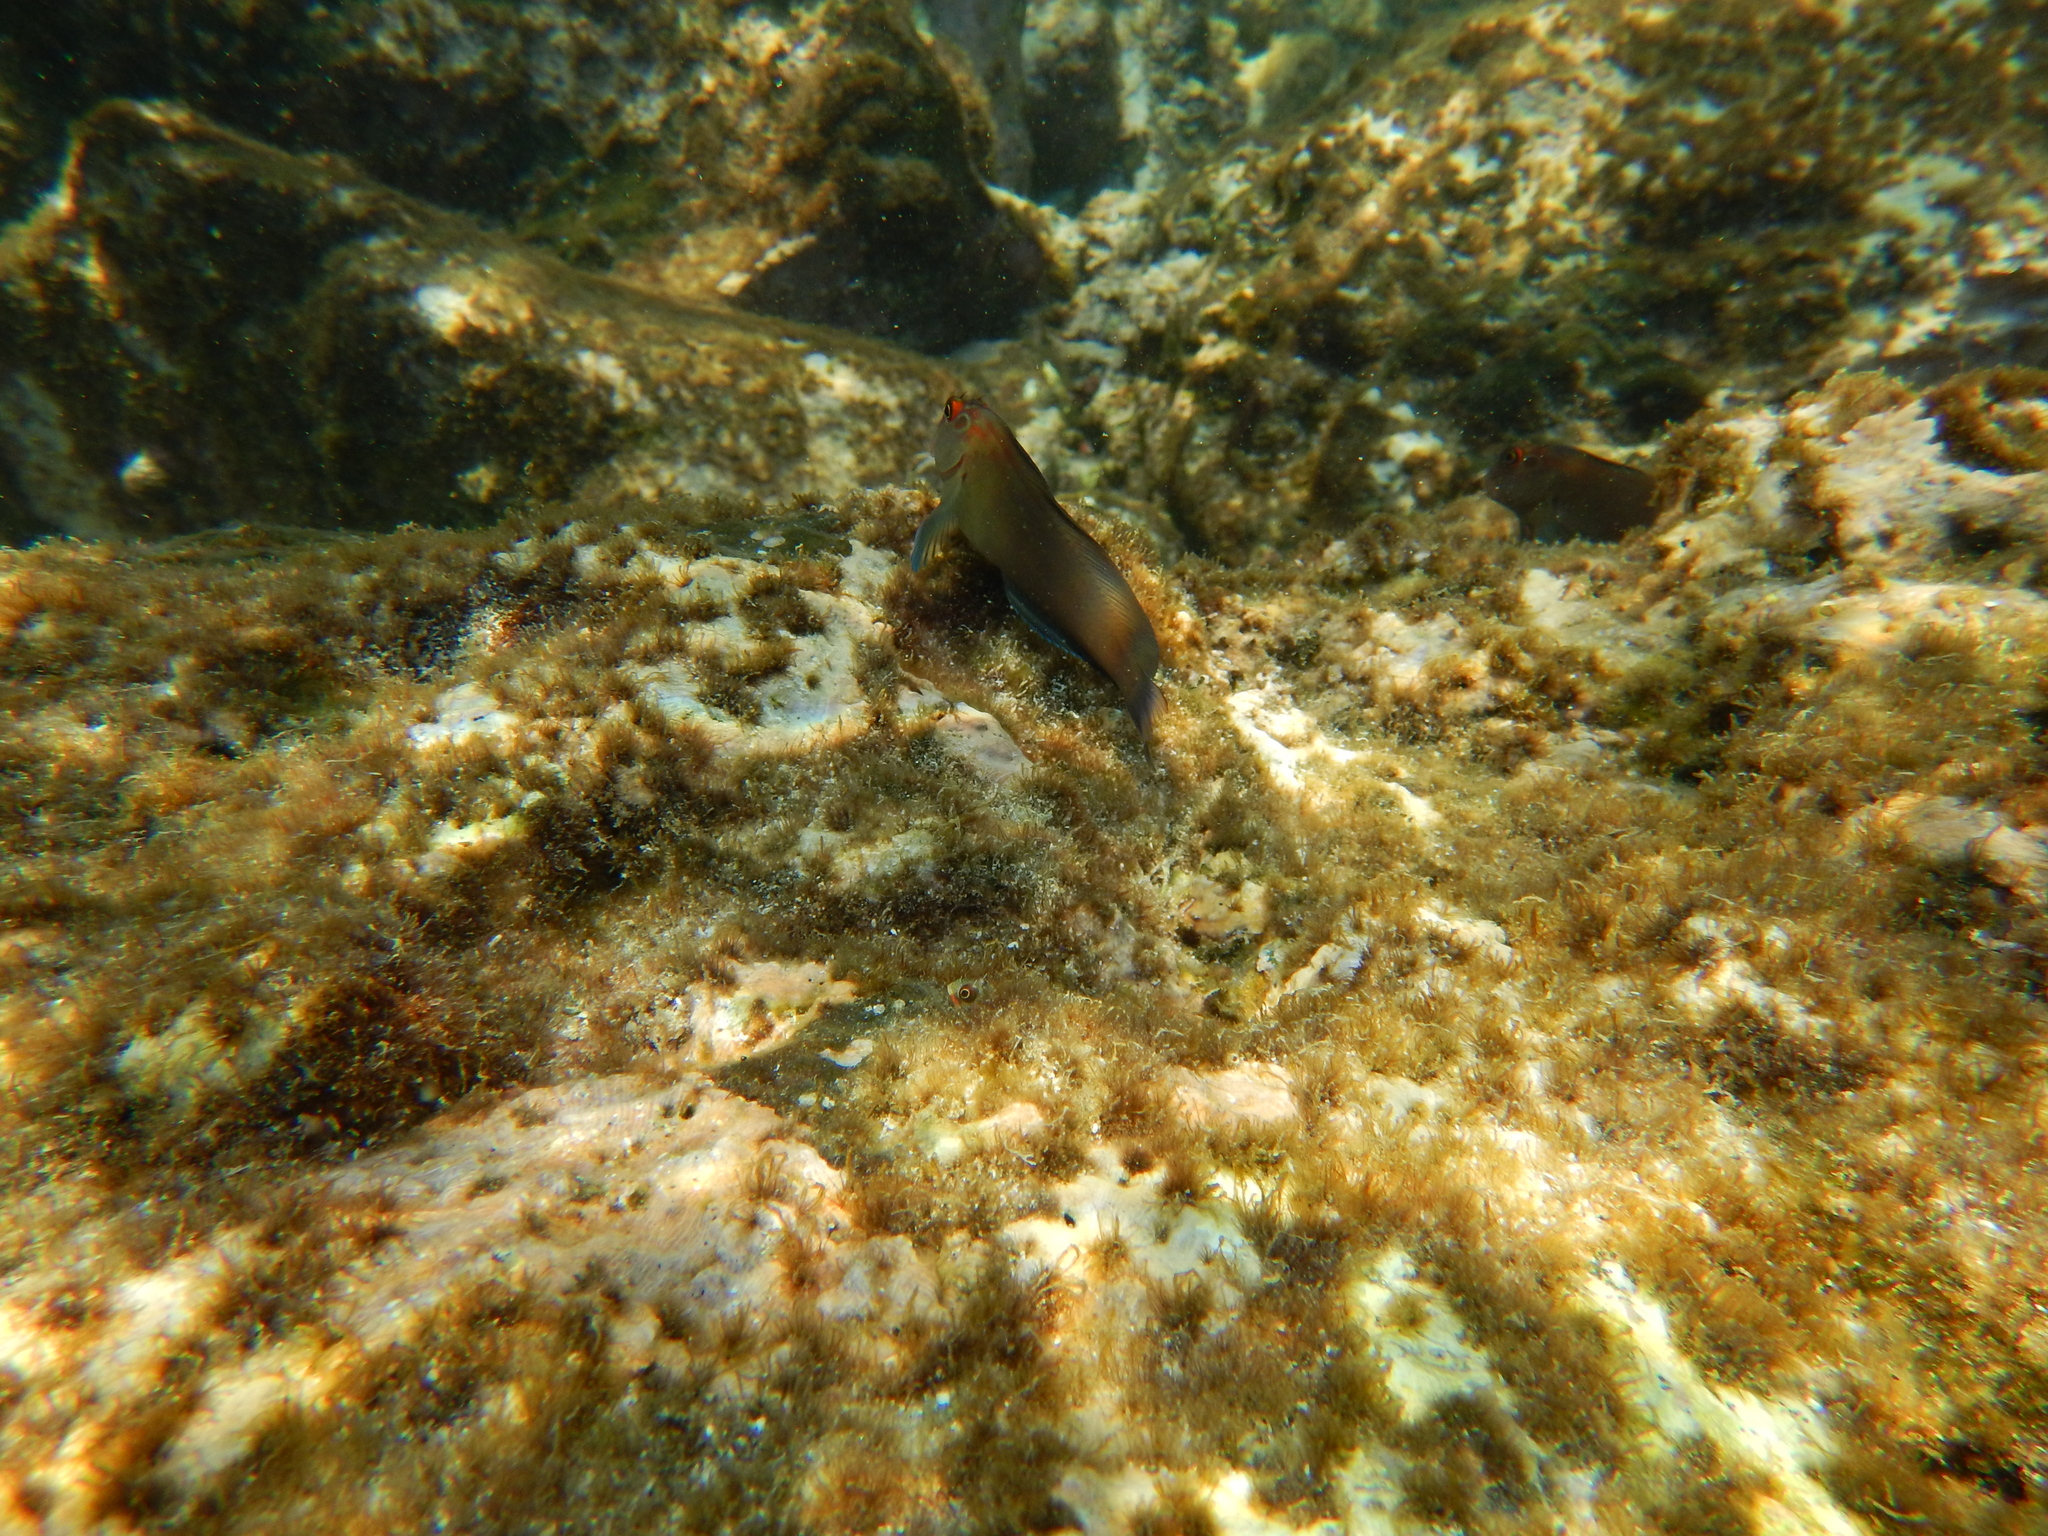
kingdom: Animalia
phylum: Chordata
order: Perciformes
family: Blenniidae
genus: Ophioblennius
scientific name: Ophioblennius steindachneri
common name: Panamic fanged blenny
